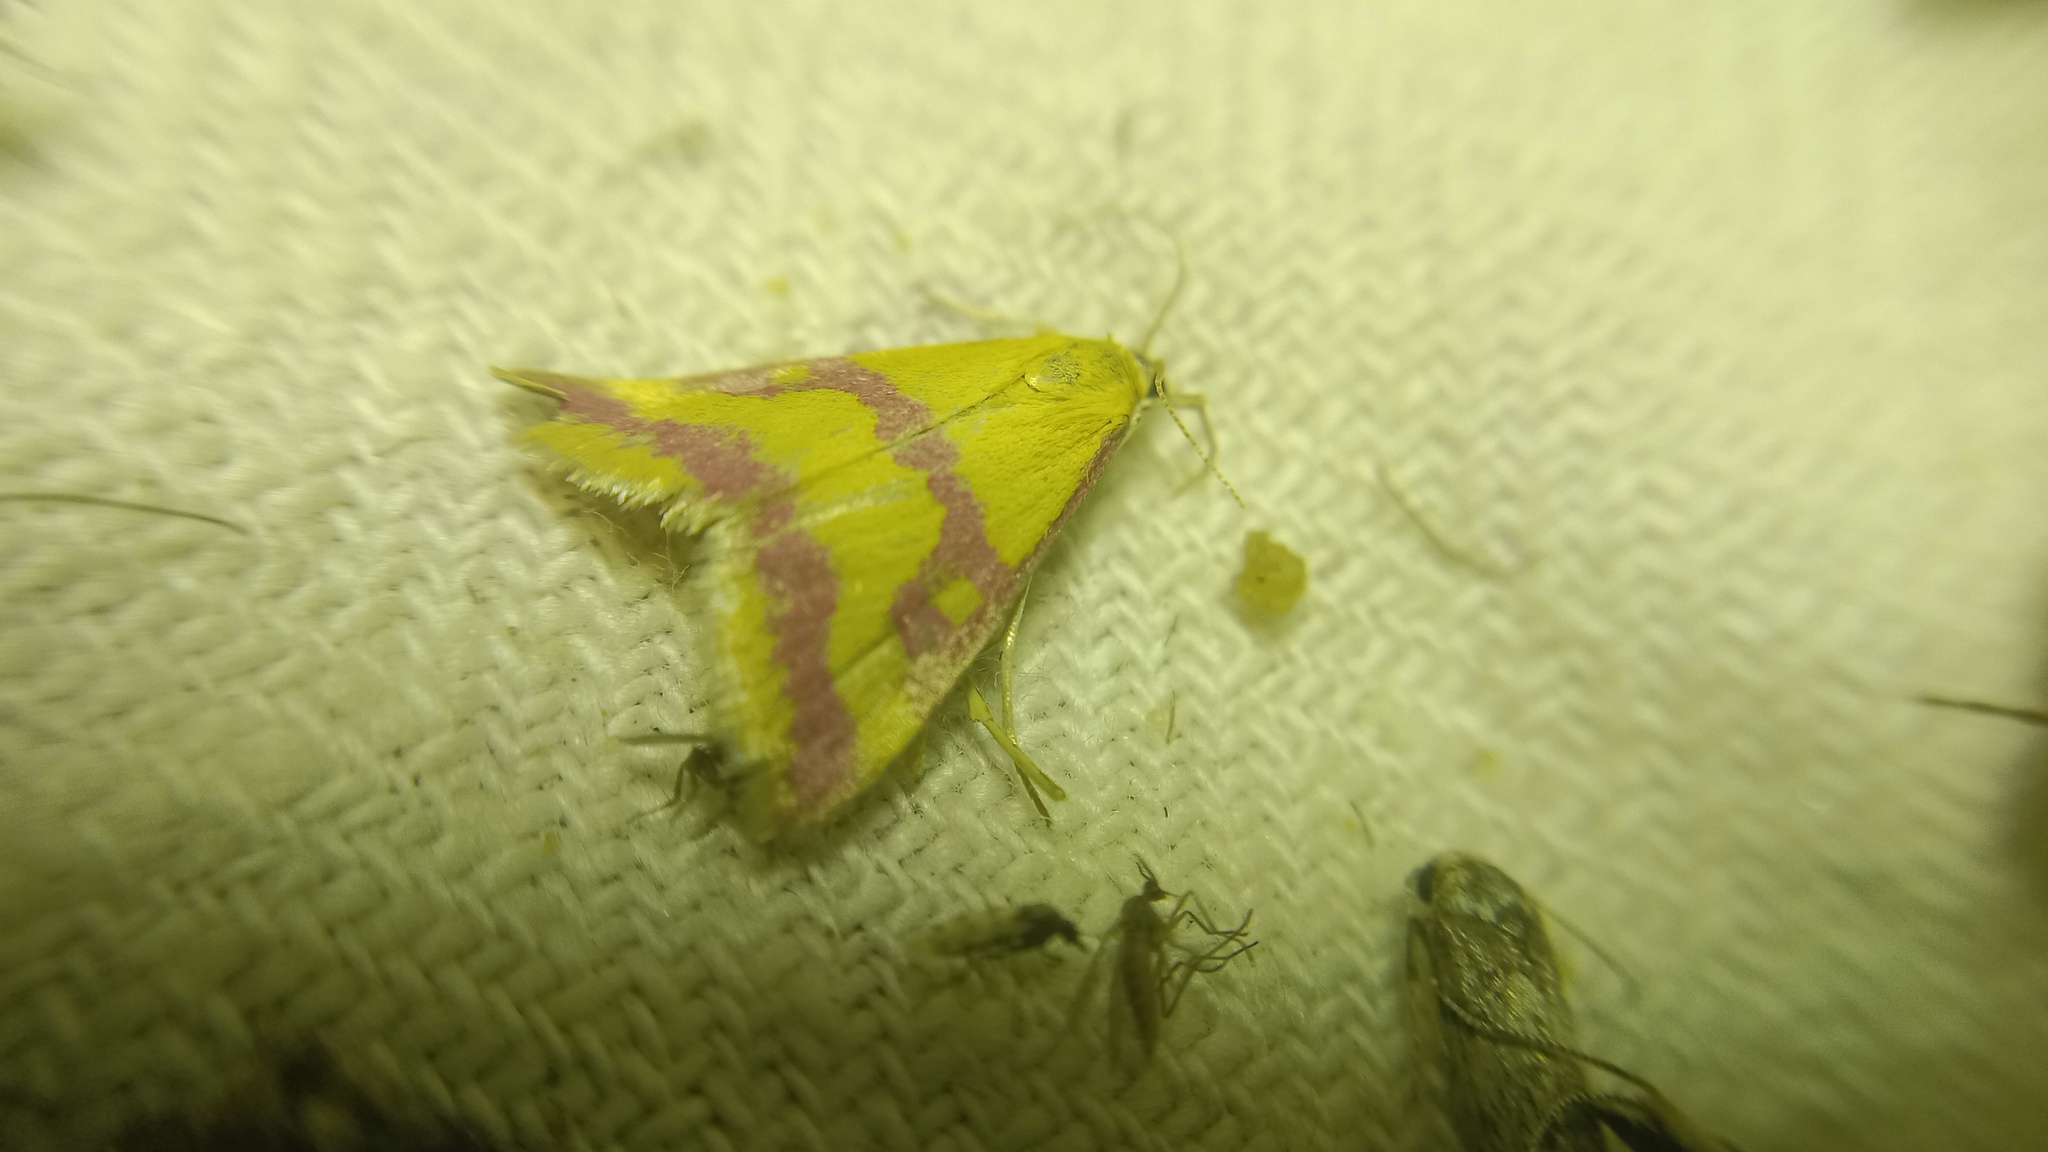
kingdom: Animalia
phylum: Arthropoda
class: Insecta
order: Lepidoptera
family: Crambidae
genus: Pyrausta
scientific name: Pyrausta sanguinalis
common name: Scarce crimson and gold
